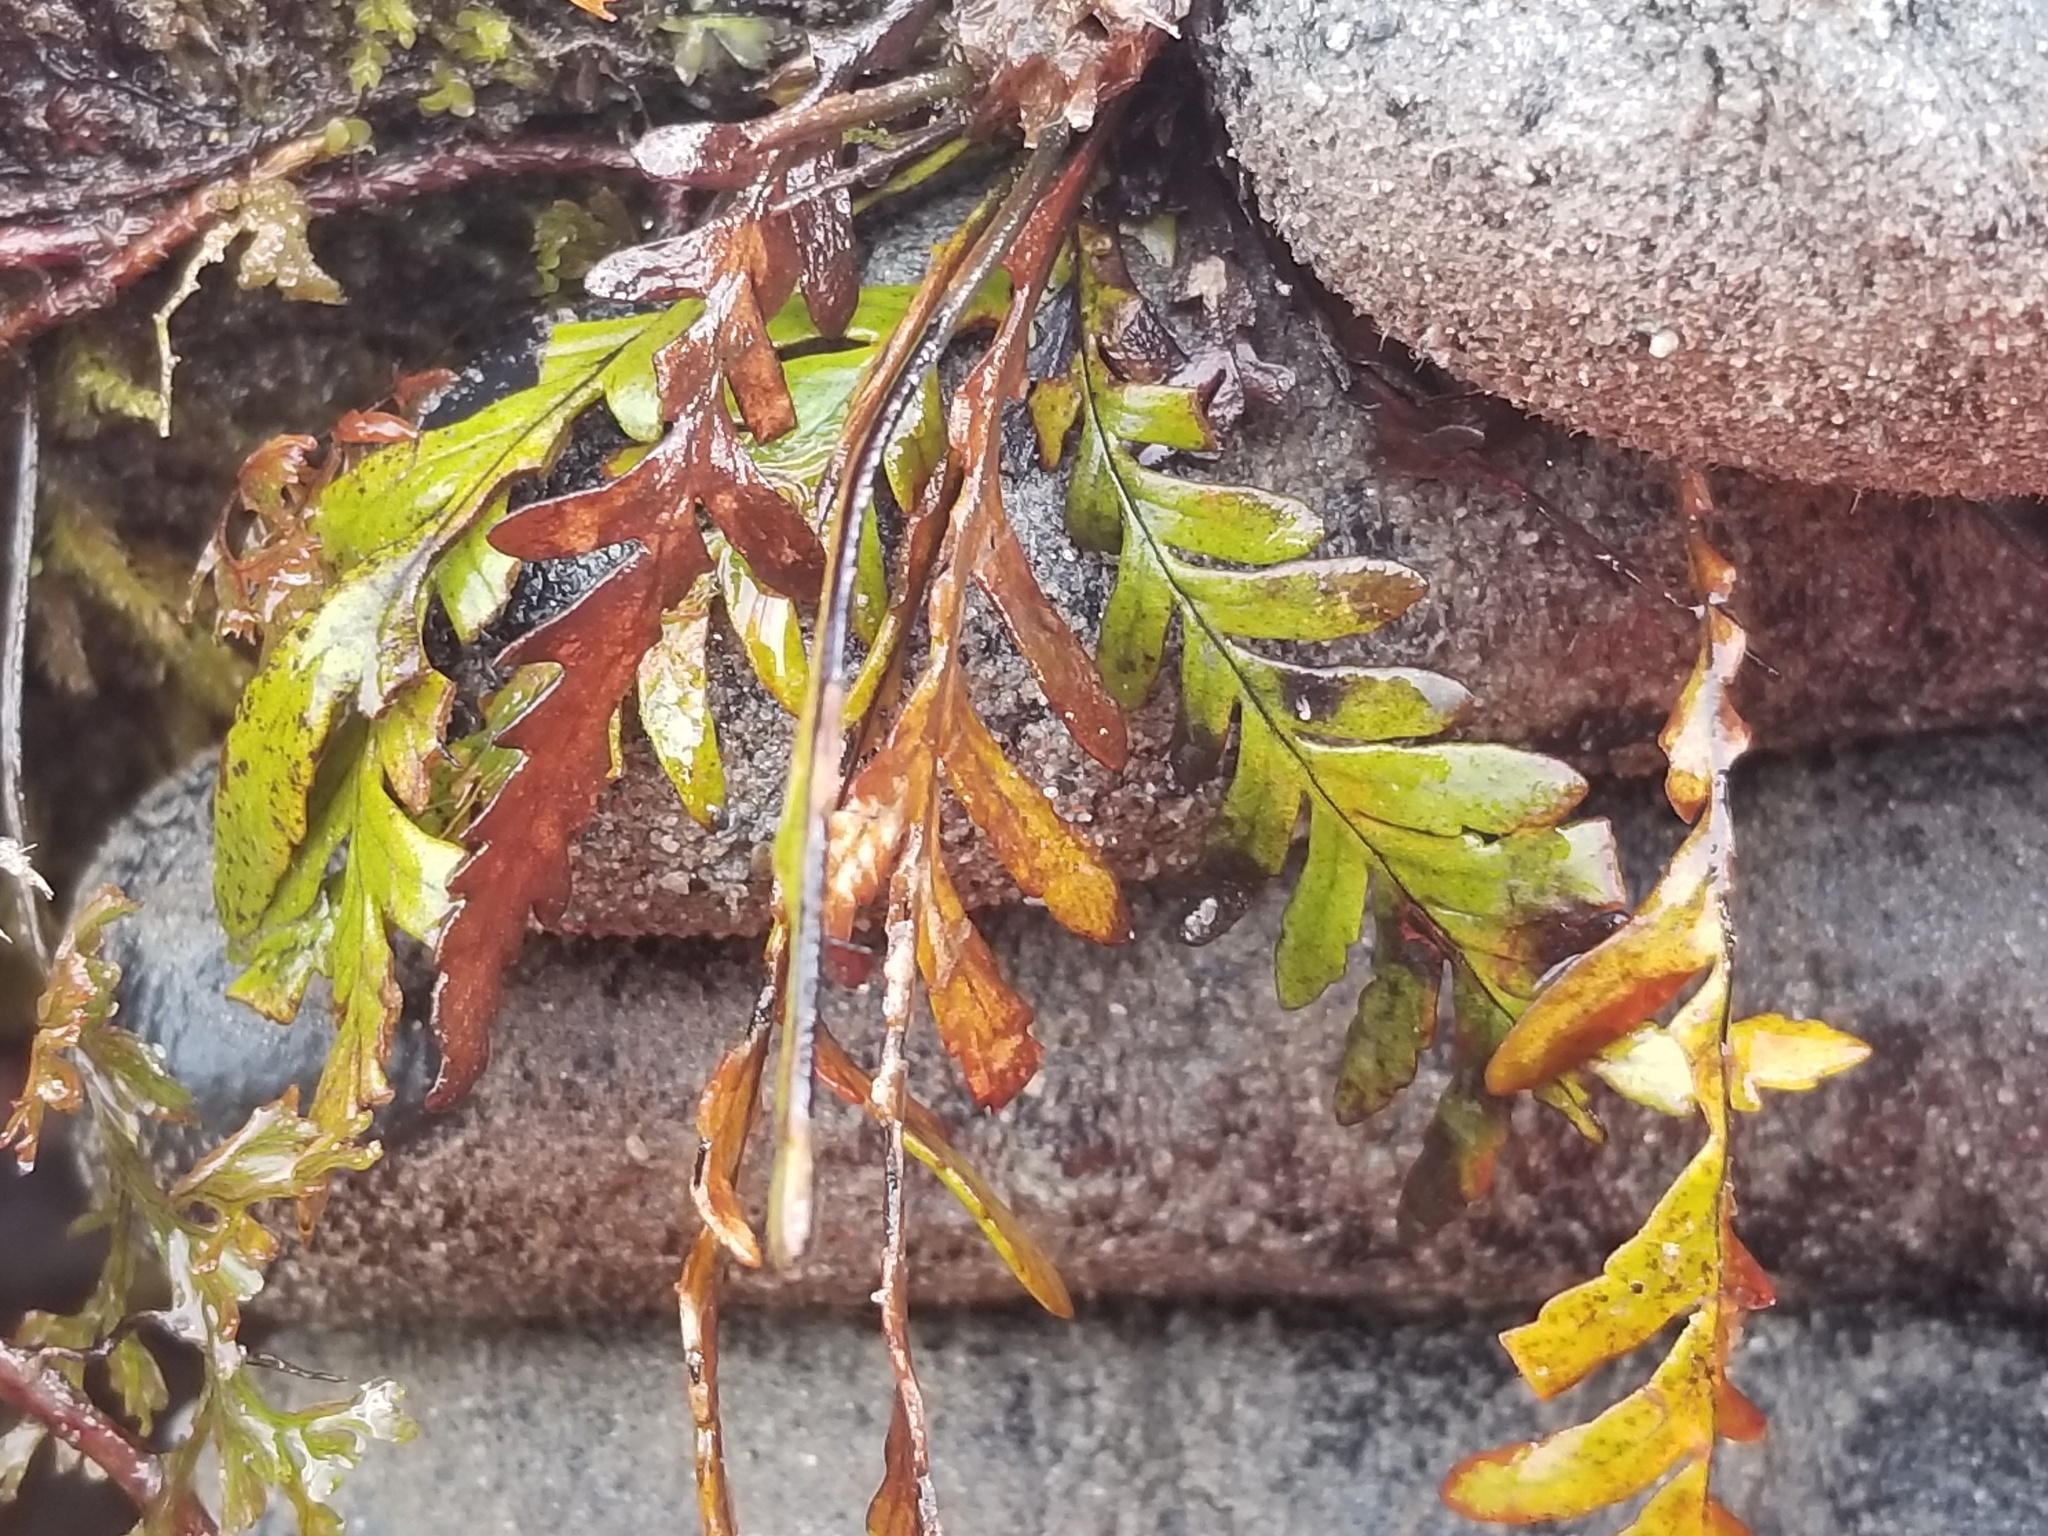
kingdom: Plantae
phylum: Tracheophyta
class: Polypodiopsida
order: Polypodiales
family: Polypodiaceae
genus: Notogrammitis
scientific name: Notogrammitis heterophylla
